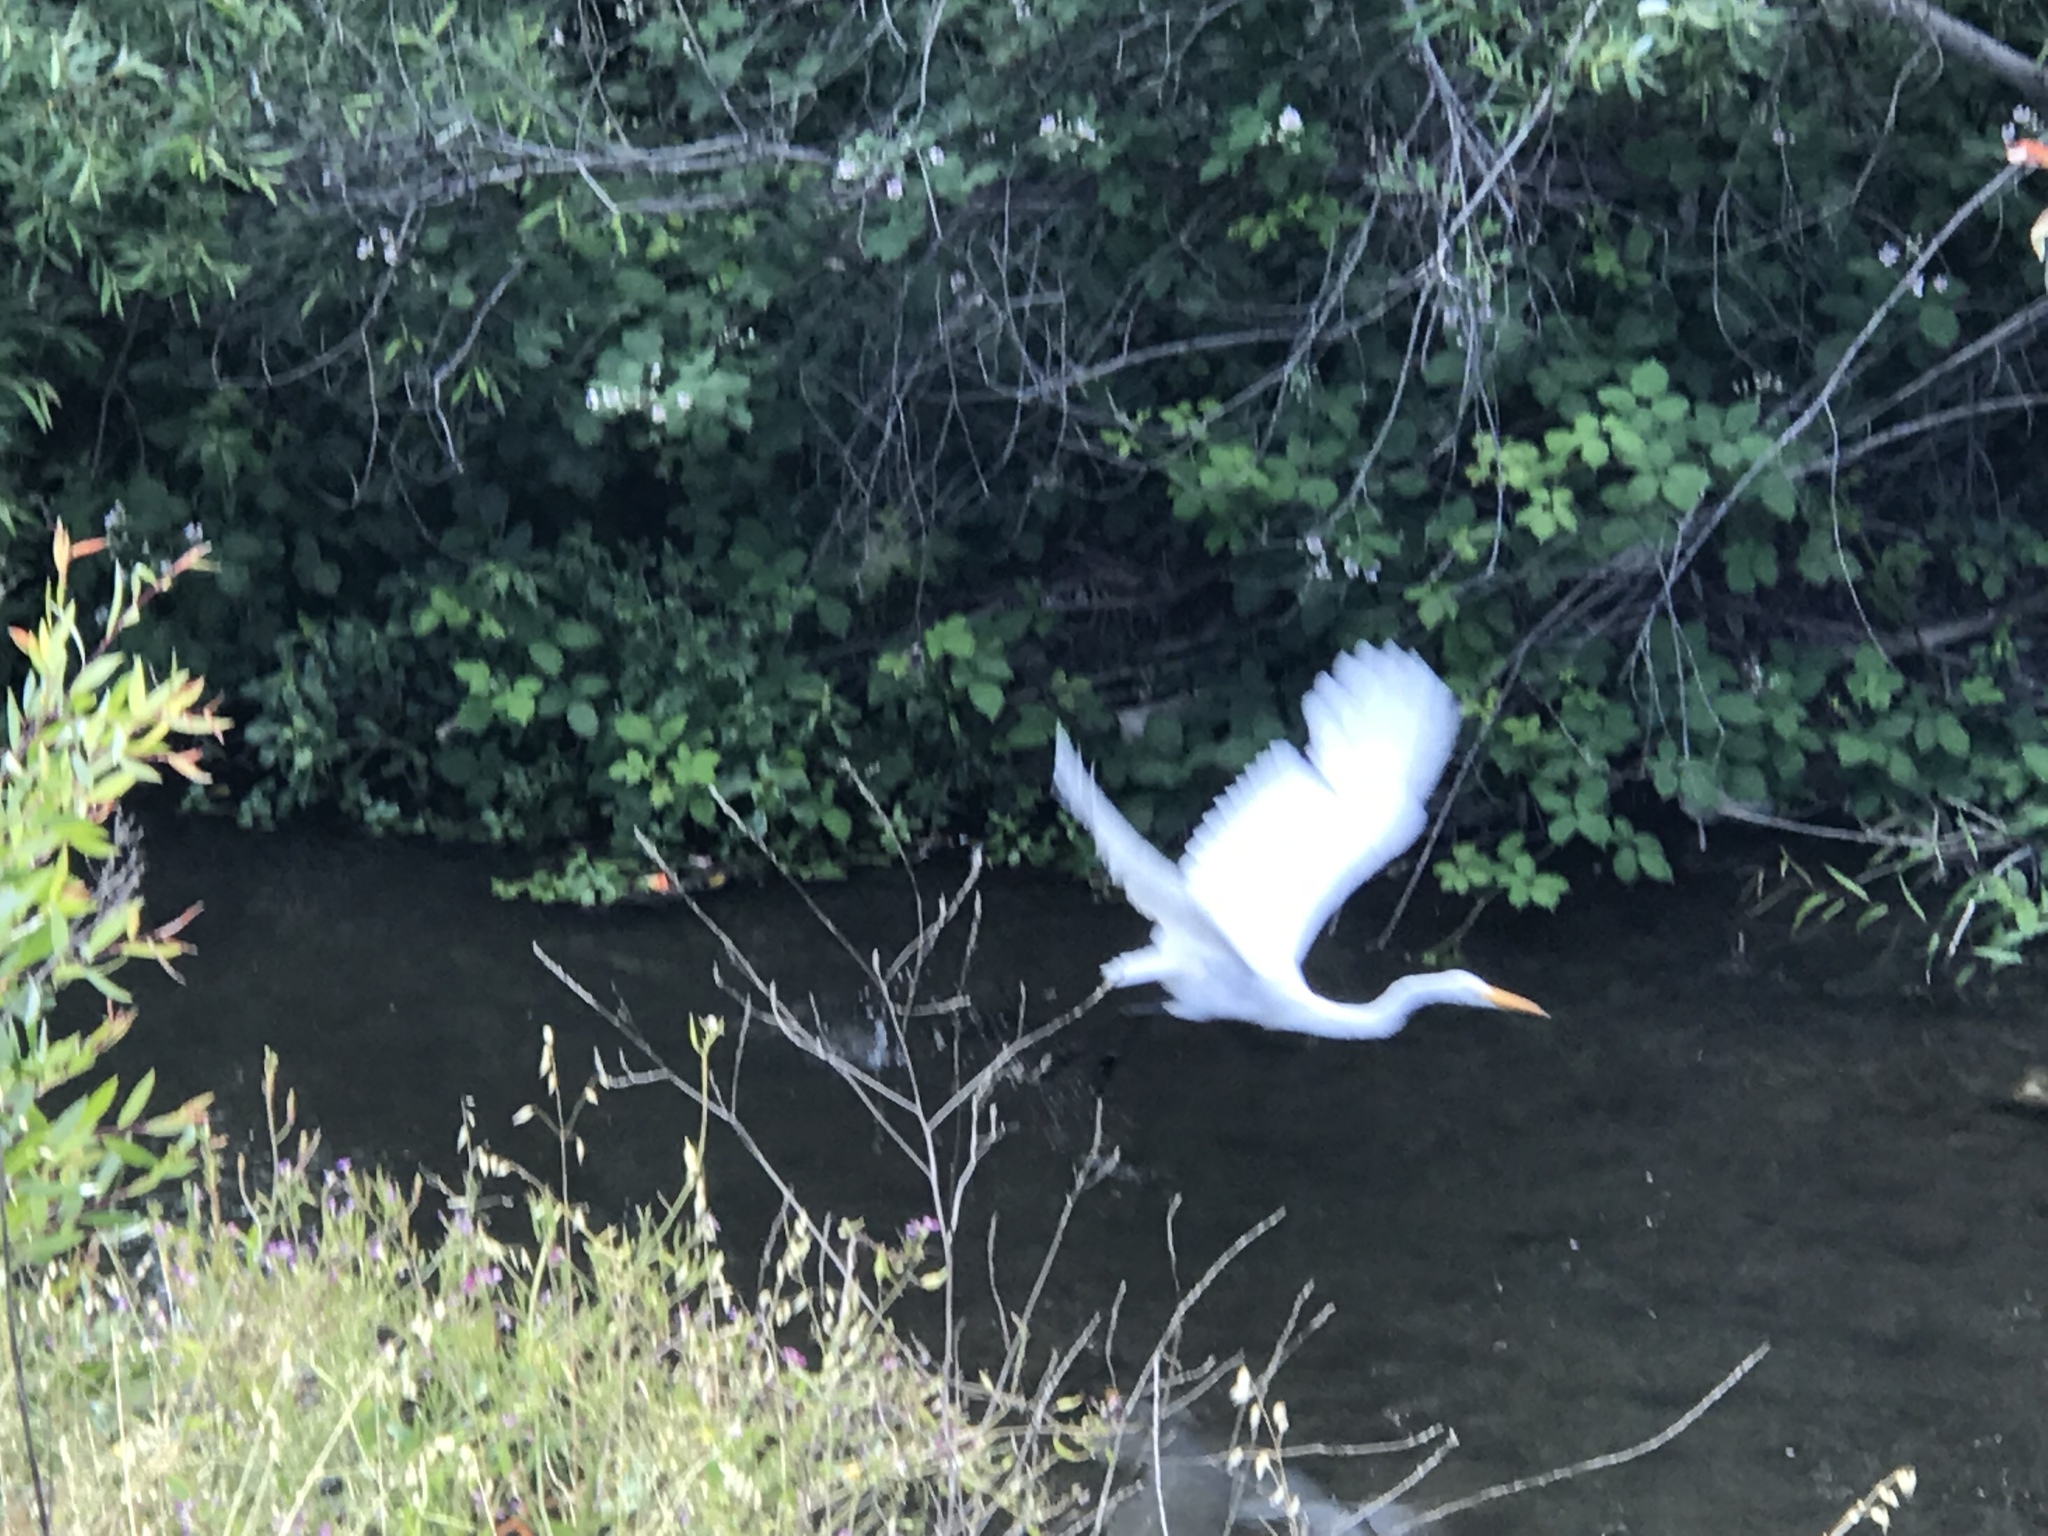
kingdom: Animalia
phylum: Chordata
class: Aves
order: Pelecaniformes
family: Ardeidae
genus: Ardea
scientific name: Ardea alba
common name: Great egret
